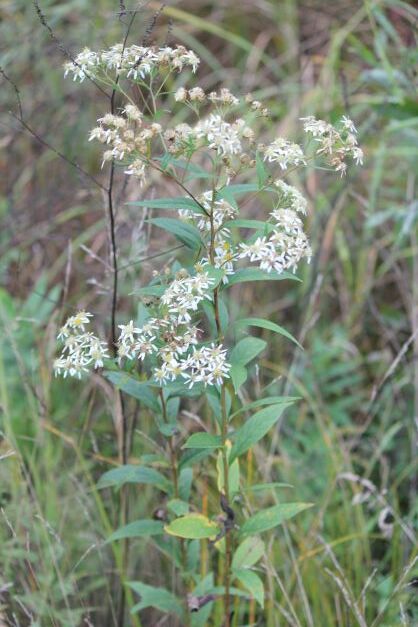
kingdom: Plantae
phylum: Tracheophyta
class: Magnoliopsida
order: Asterales
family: Asteraceae
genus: Doellingeria
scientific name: Doellingeria umbellata
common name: Flat-top white aster
